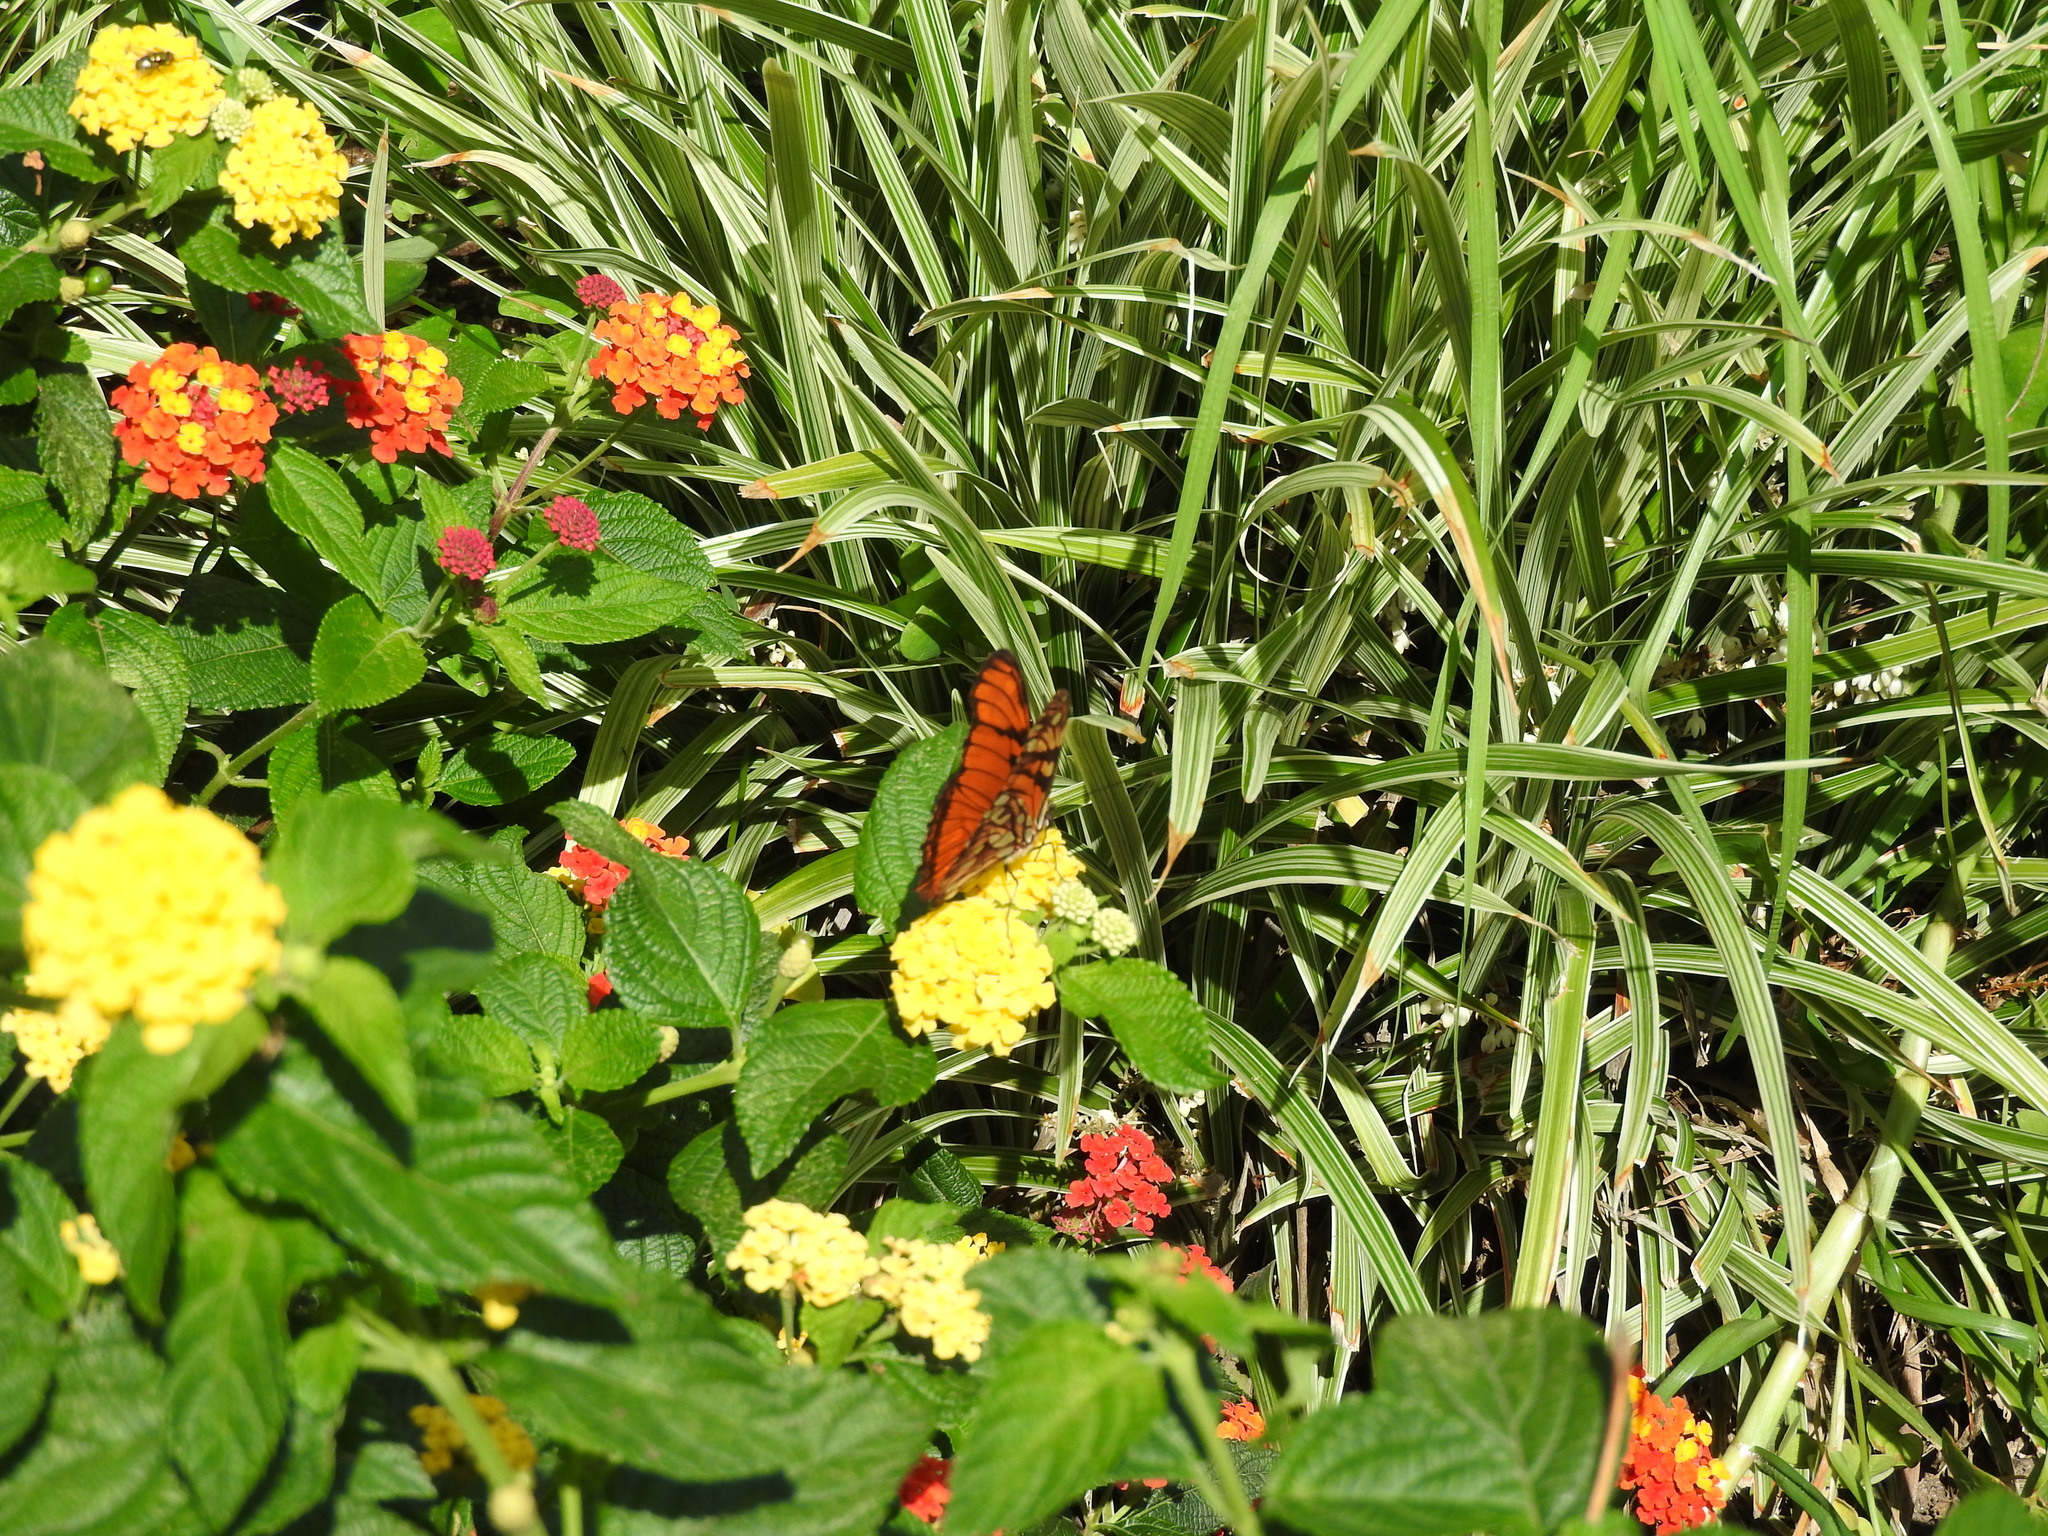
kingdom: Animalia
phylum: Arthropoda
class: Insecta
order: Lepidoptera
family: Nymphalidae
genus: Dione
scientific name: Dione juno
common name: Juno silverspot
